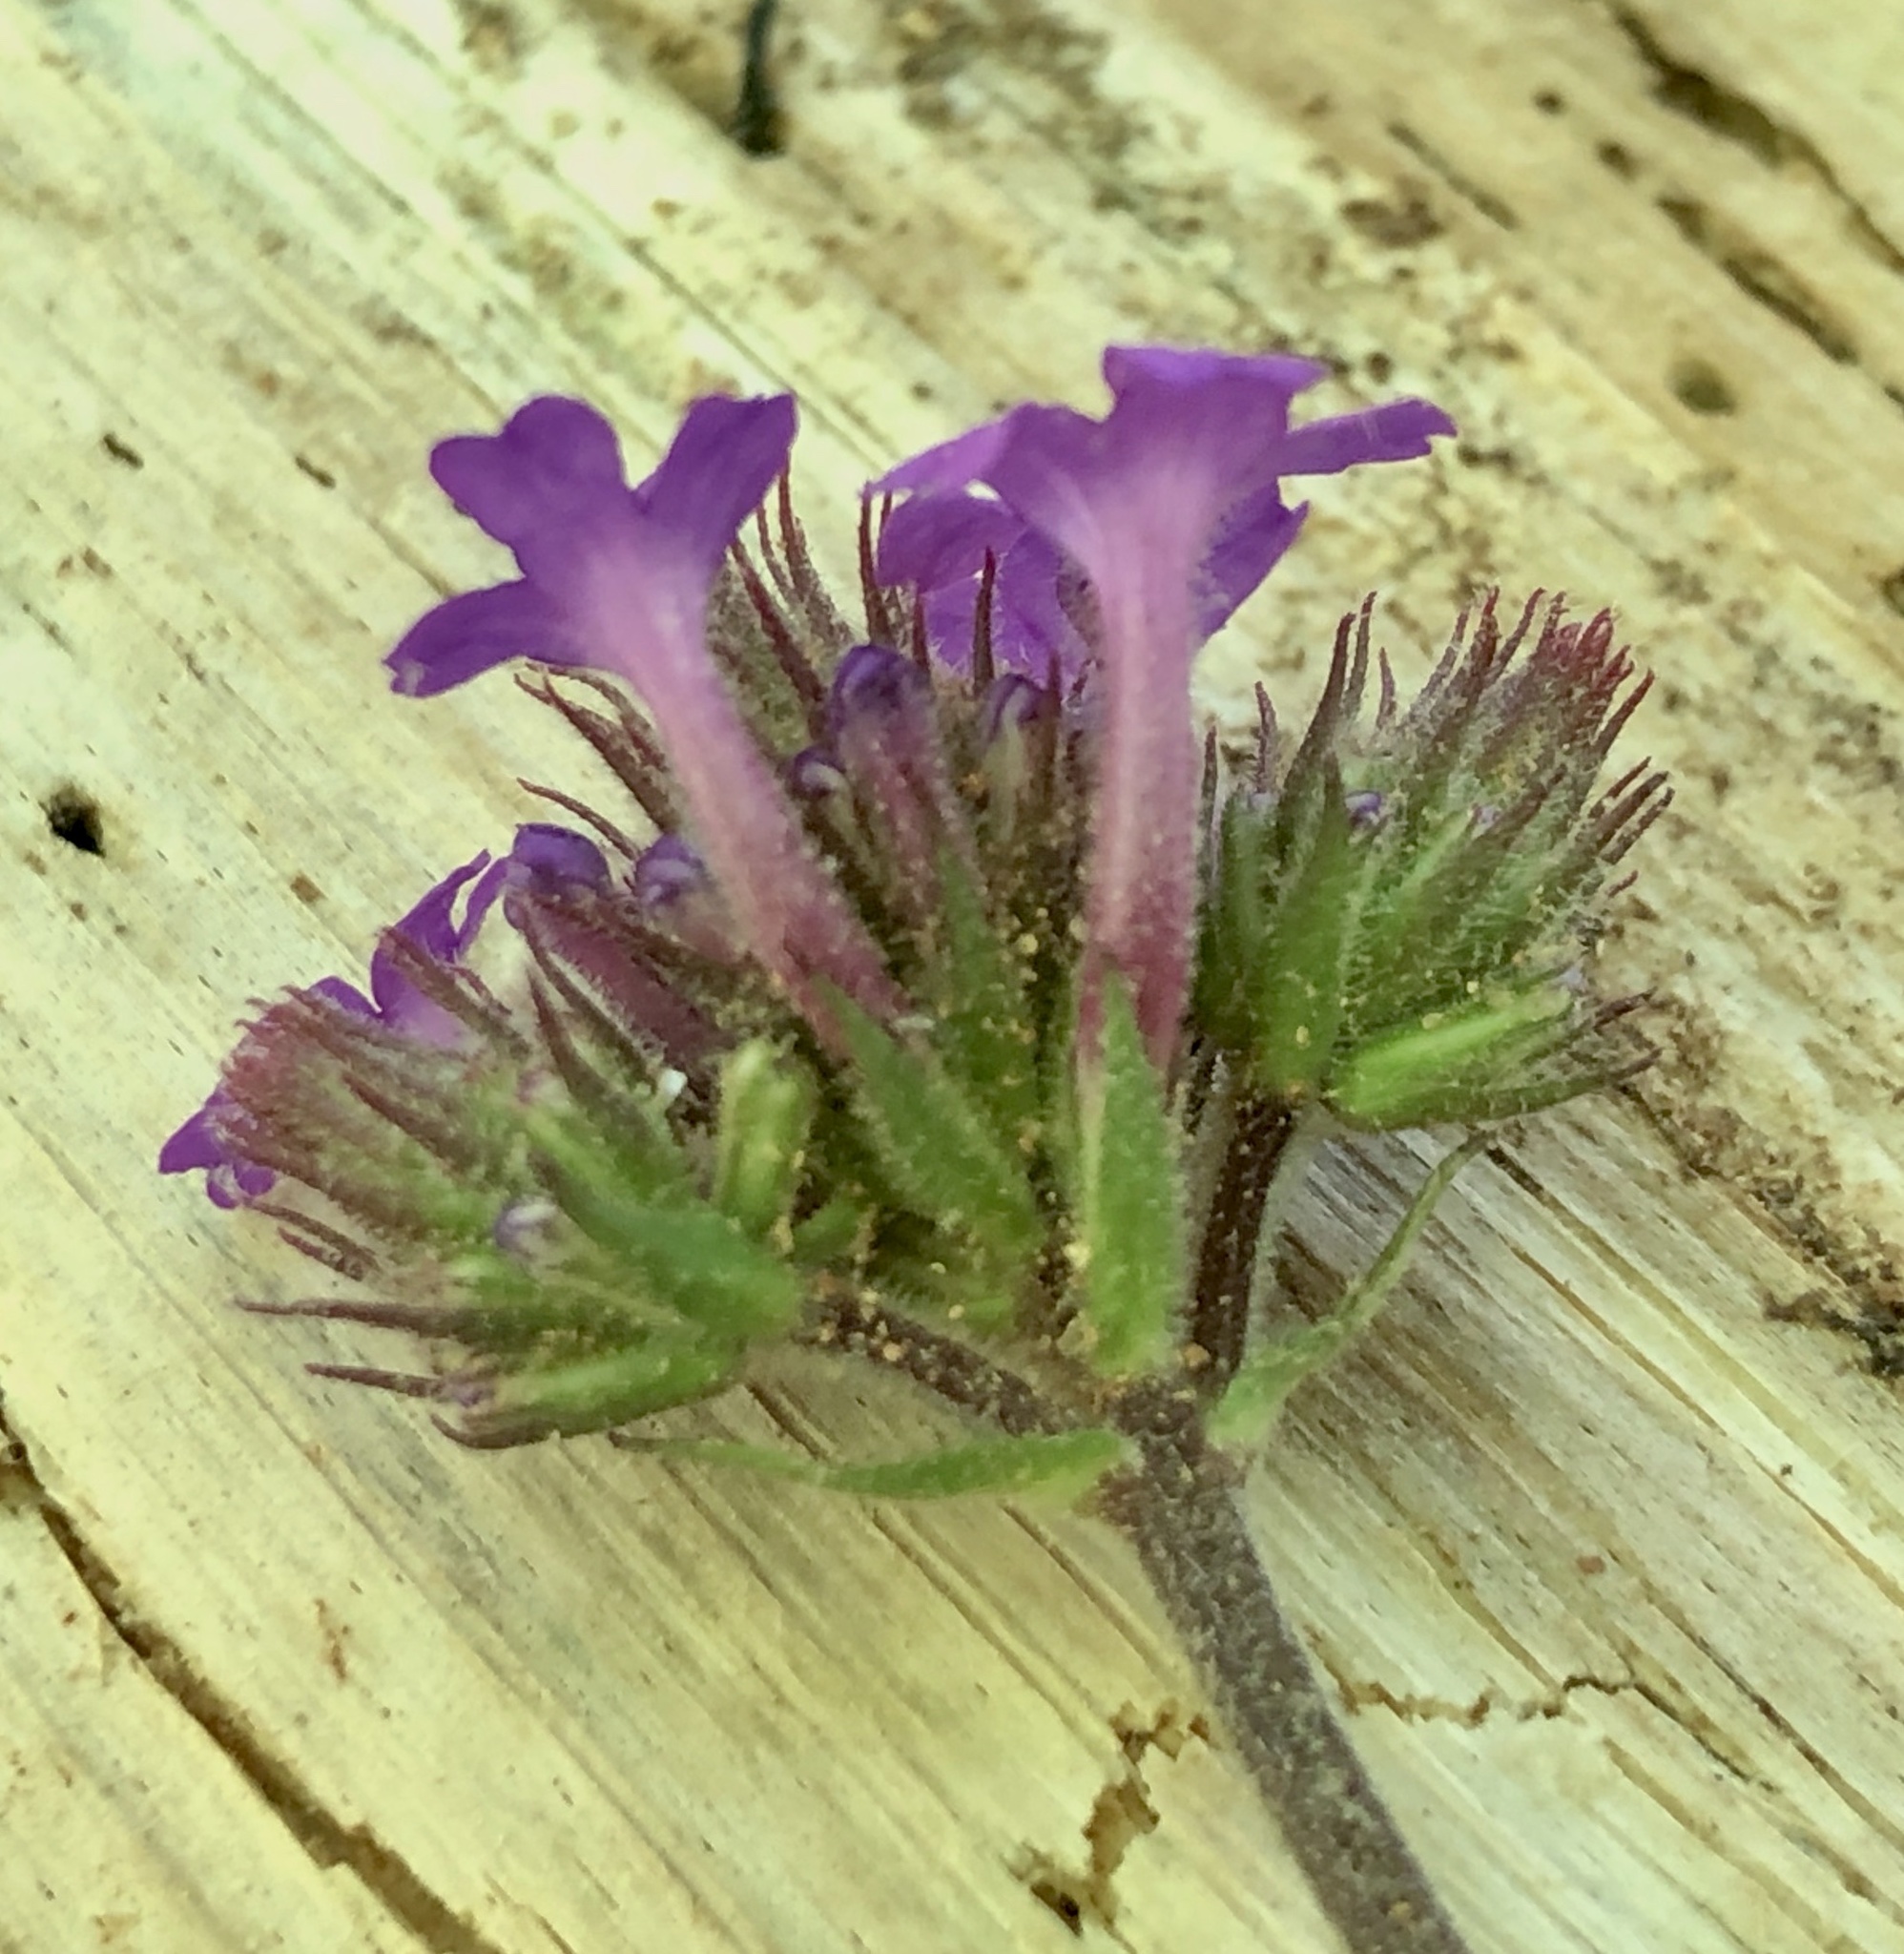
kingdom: Plantae
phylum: Tracheophyta
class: Magnoliopsida
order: Lamiales
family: Verbenaceae
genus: Verbena
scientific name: Verbena rigida
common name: Slender vervain
